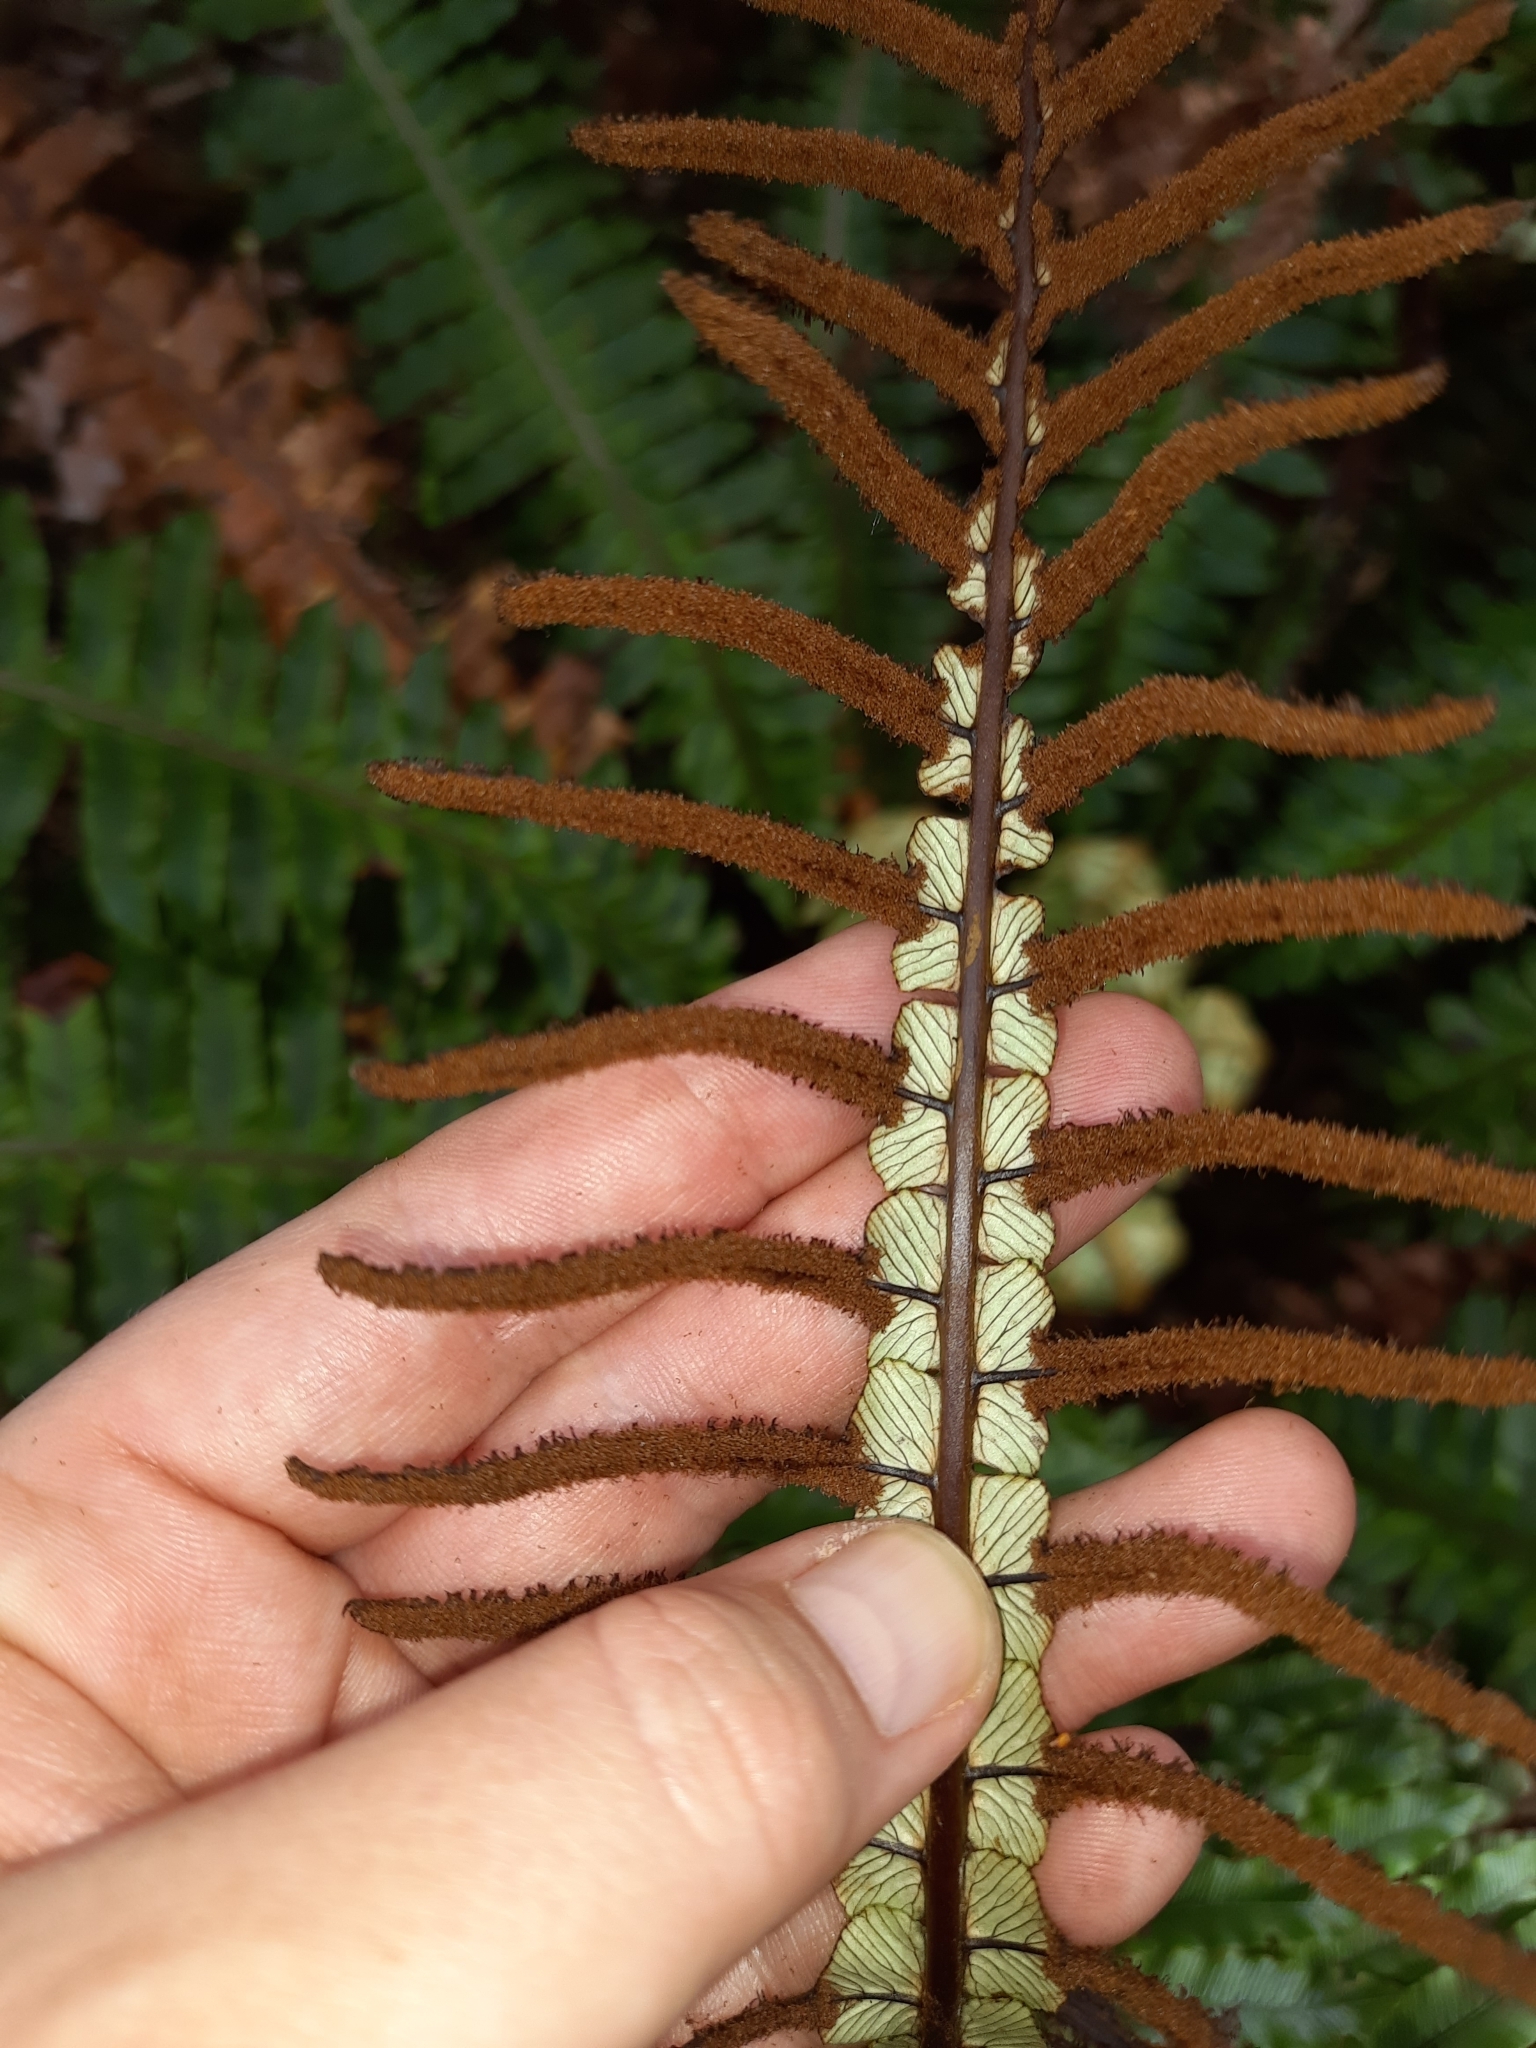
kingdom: Plantae
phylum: Tracheophyta
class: Polypodiopsida
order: Polypodiales
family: Blechnaceae
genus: Lomaria
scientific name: Lomaria discolor
